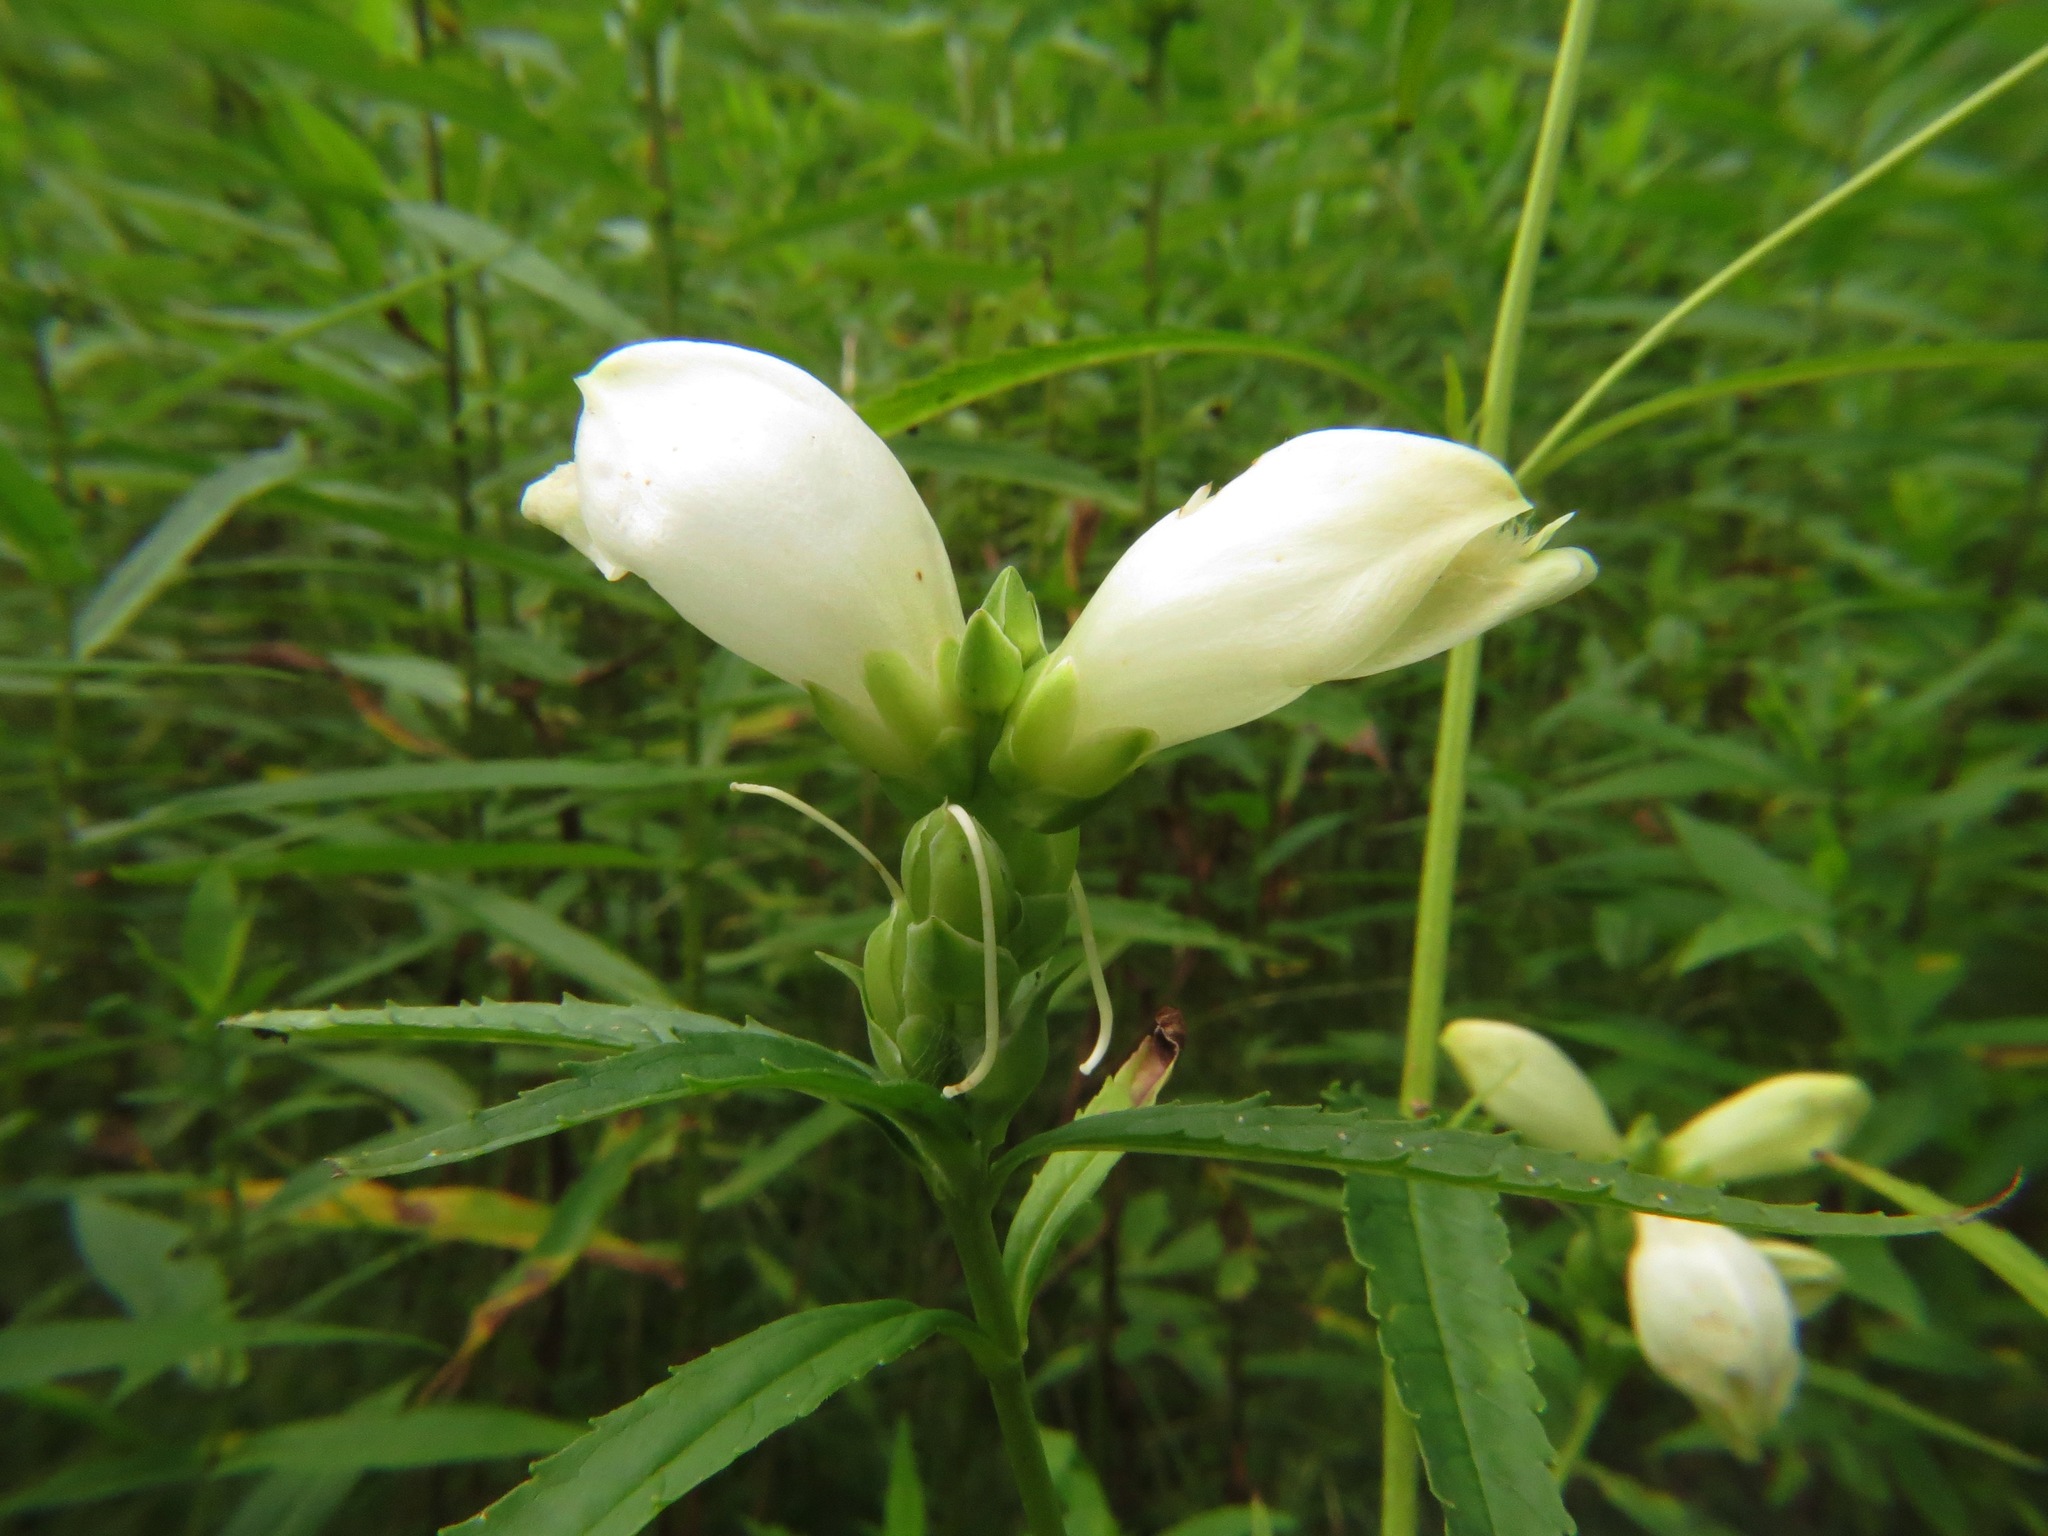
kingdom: Plantae
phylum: Tracheophyta
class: Magnoliopsida
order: Lamiales
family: Plantaginaceae
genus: Chelone
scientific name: Chelone glabra
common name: Snakehead
